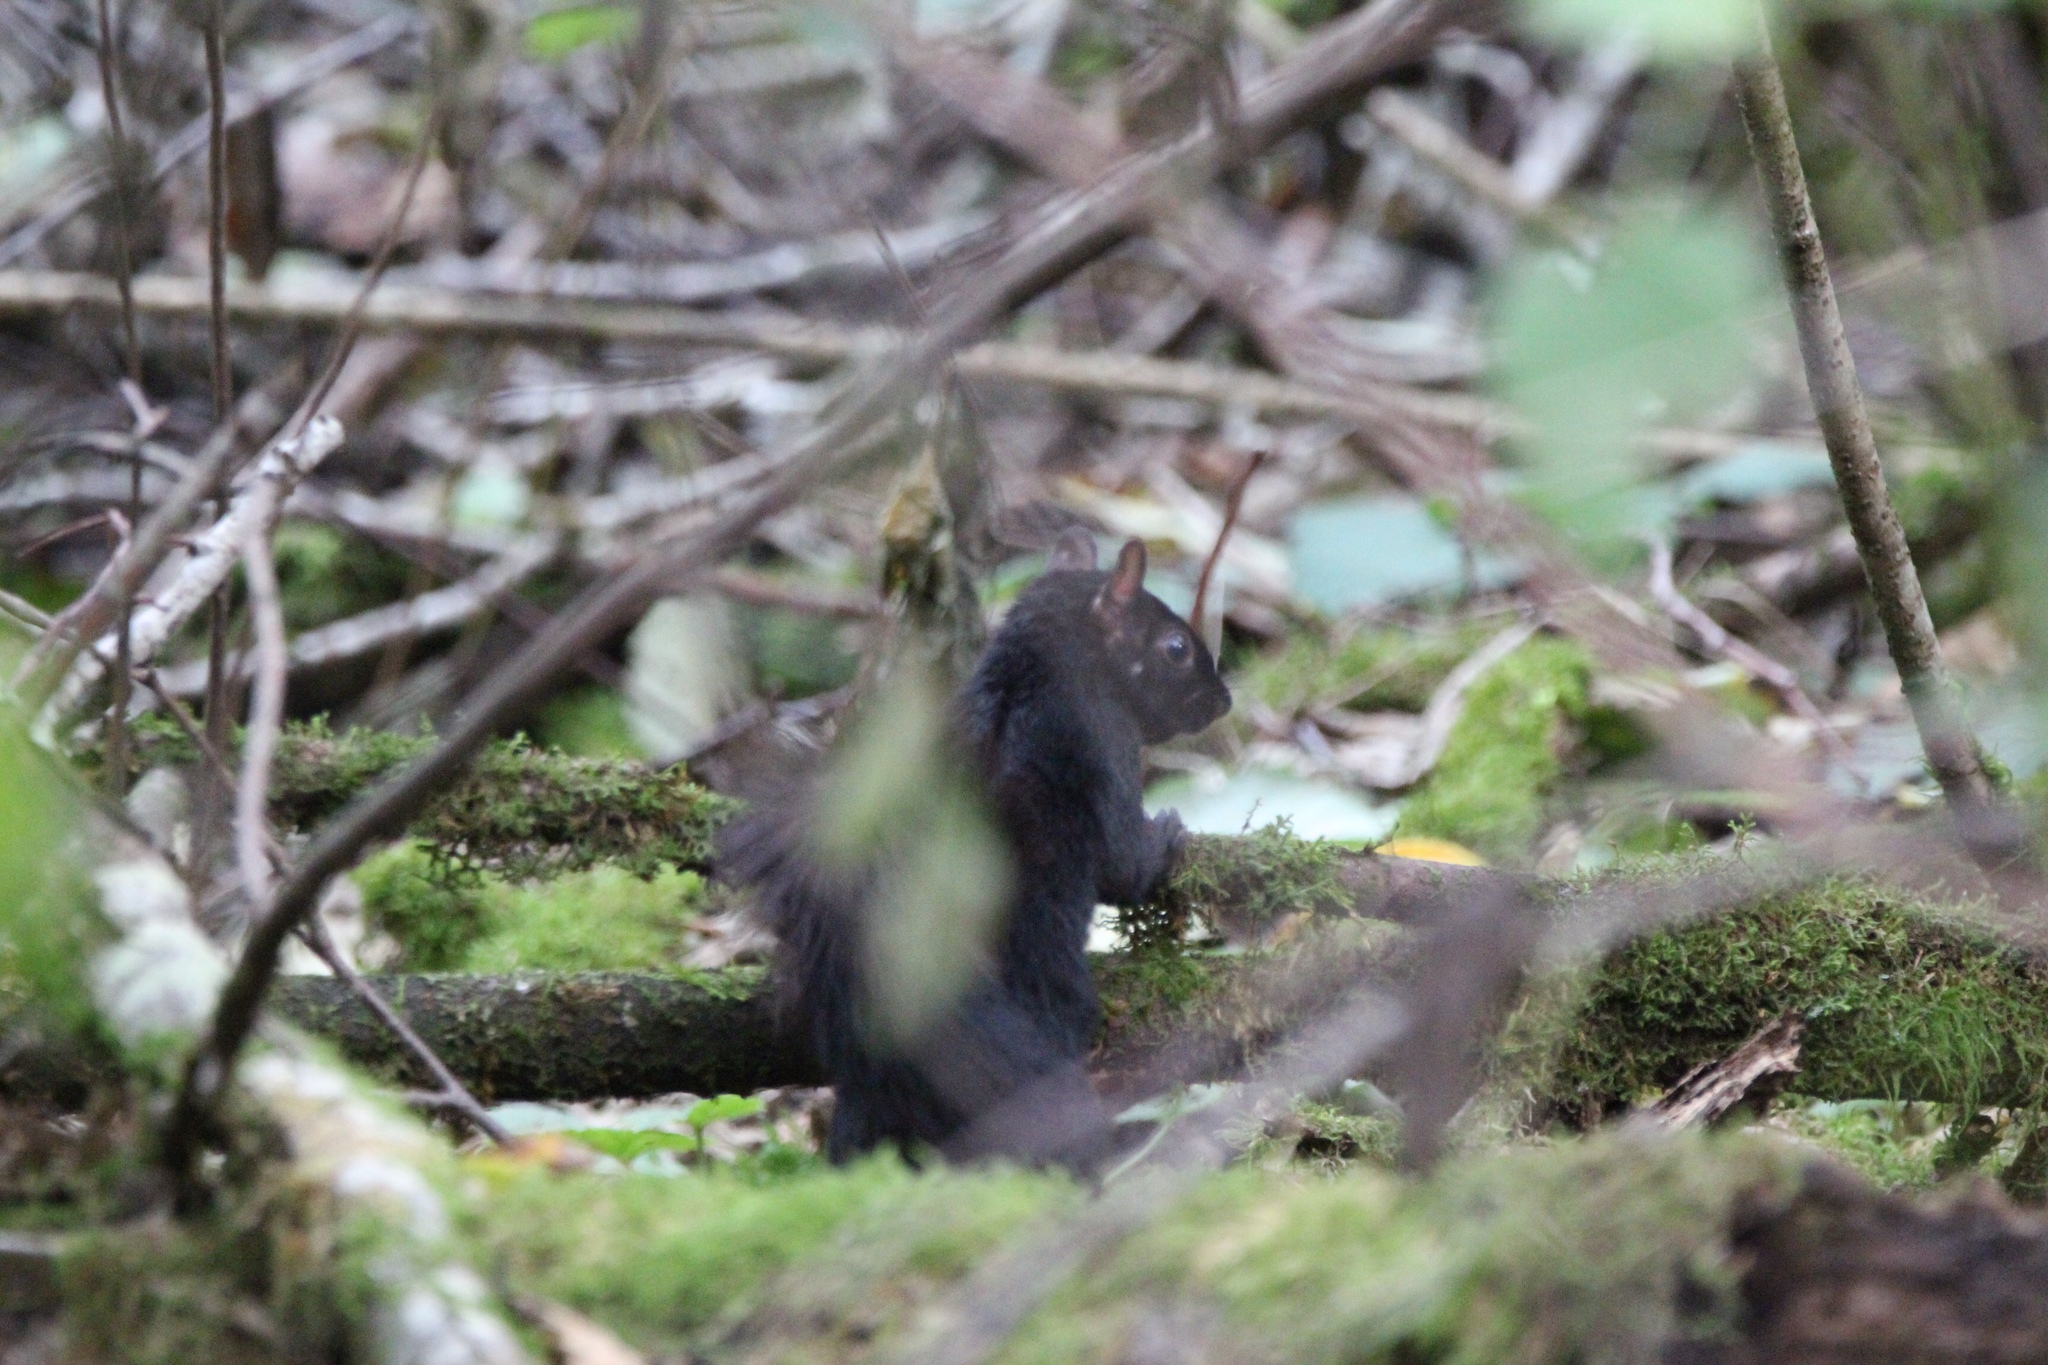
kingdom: Animalia
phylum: Chordata
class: Mammalia
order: Rodentia
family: Sciuridae
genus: Sciurus
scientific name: Sciurus carolinensis
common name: Eastern gray squirrel
